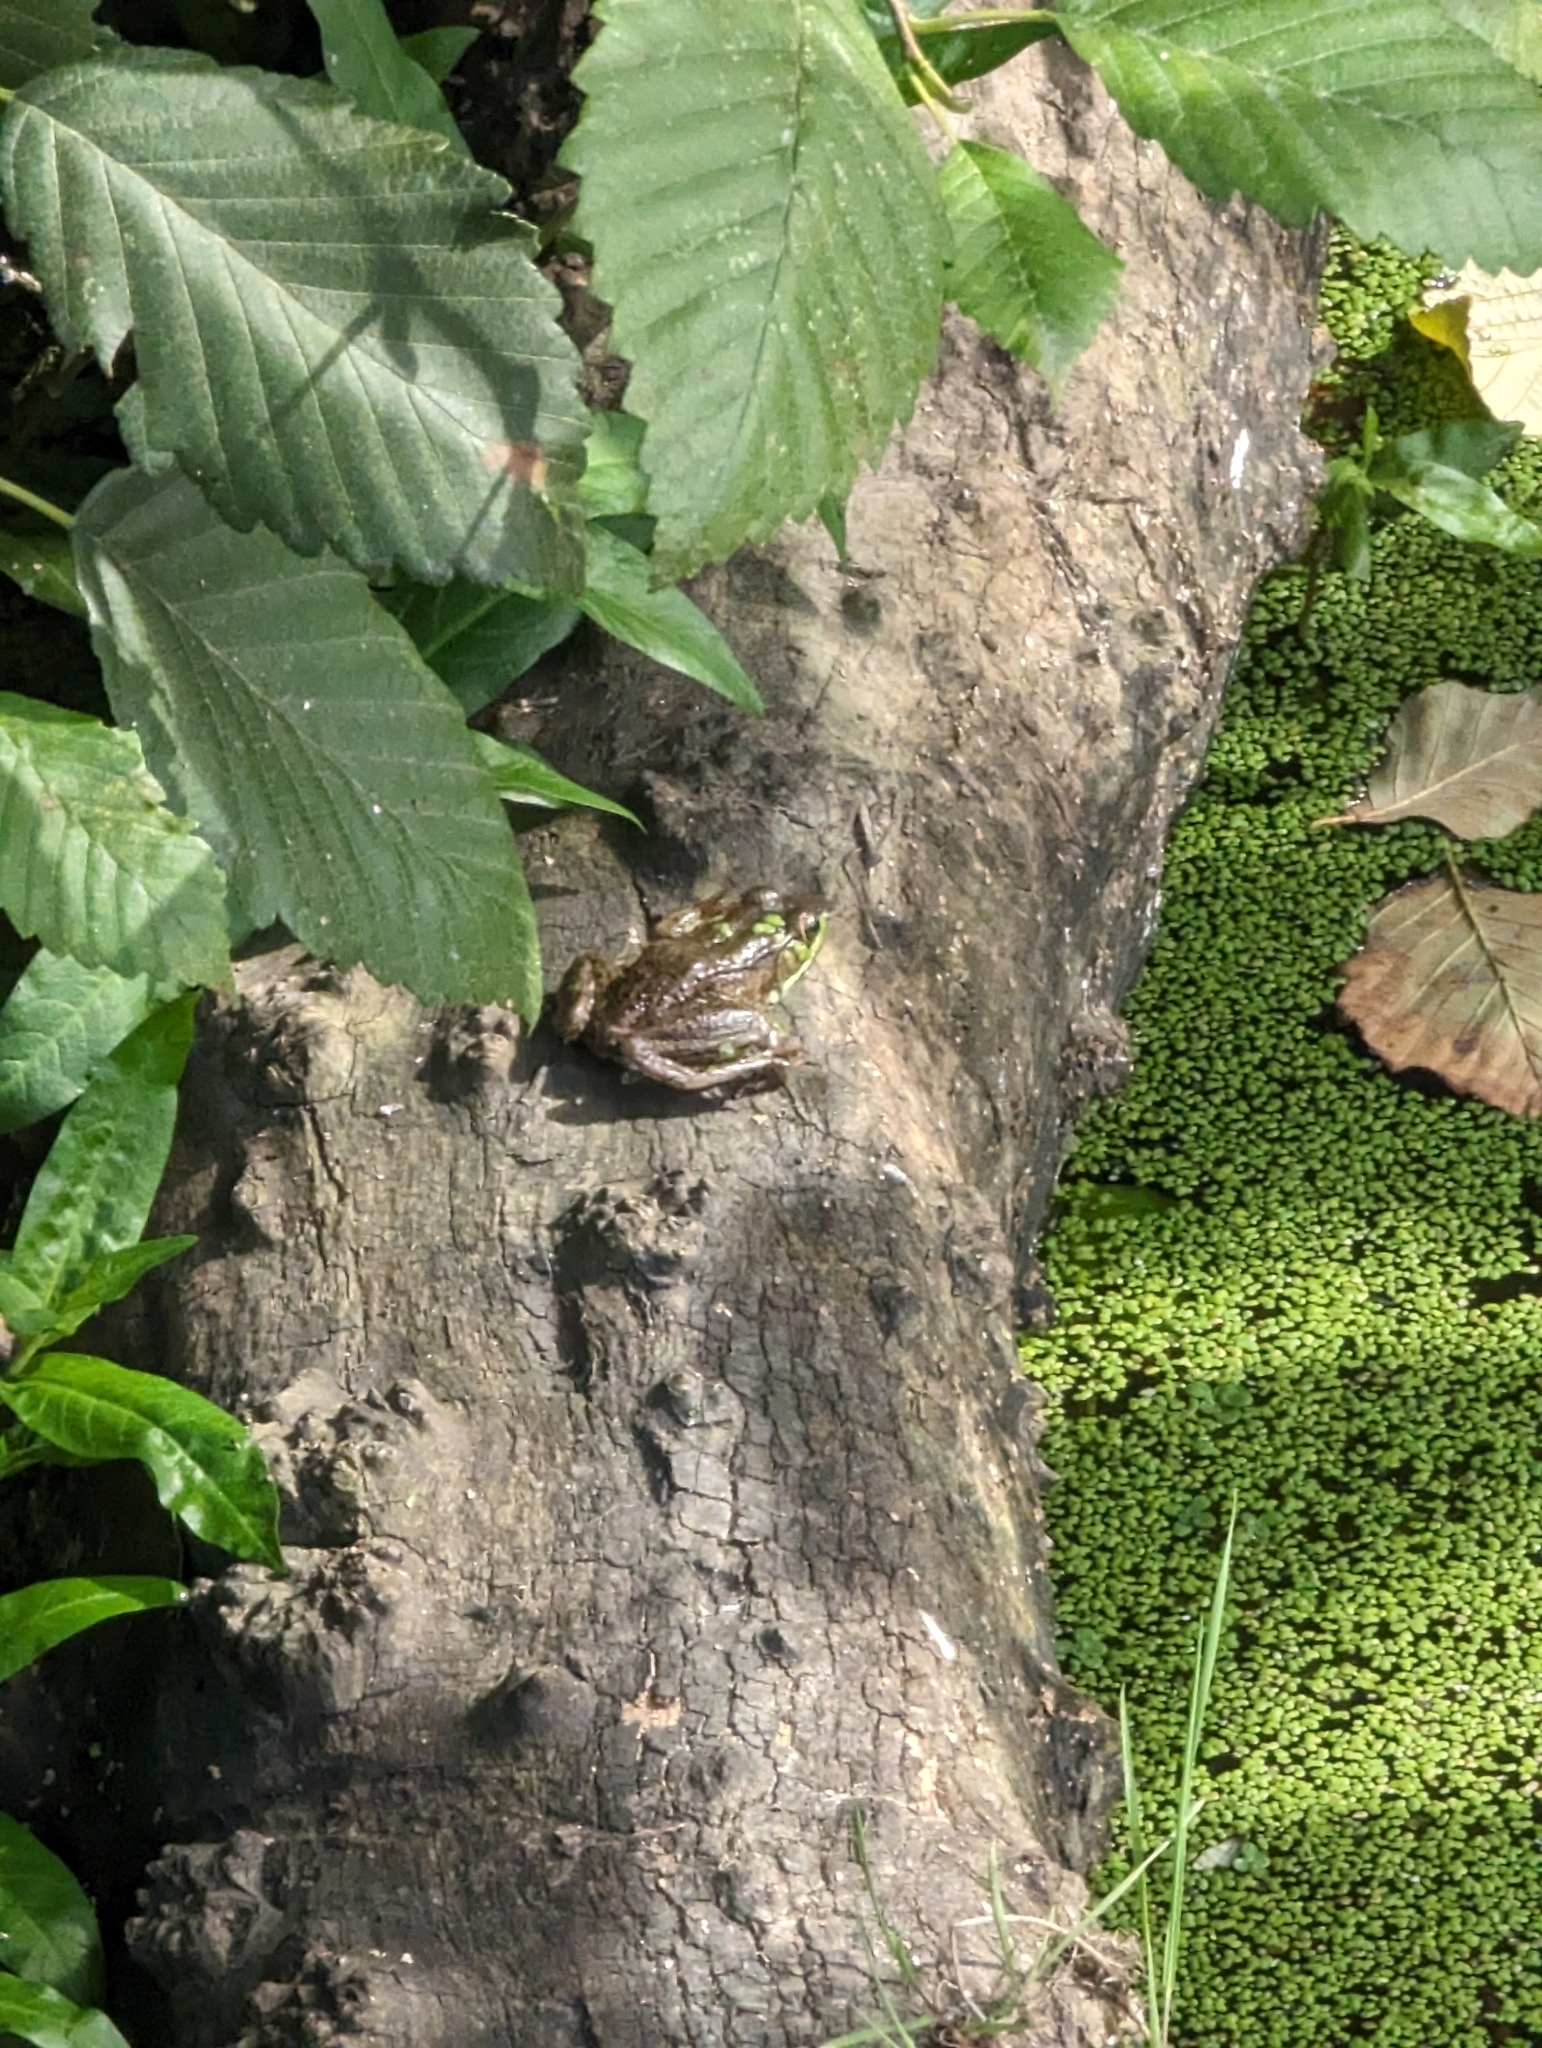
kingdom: Animalia
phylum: Chordata
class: Amphibia
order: Anura
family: Ranidae
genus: Lithobates
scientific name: Lithobates clamitans
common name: Green frog
